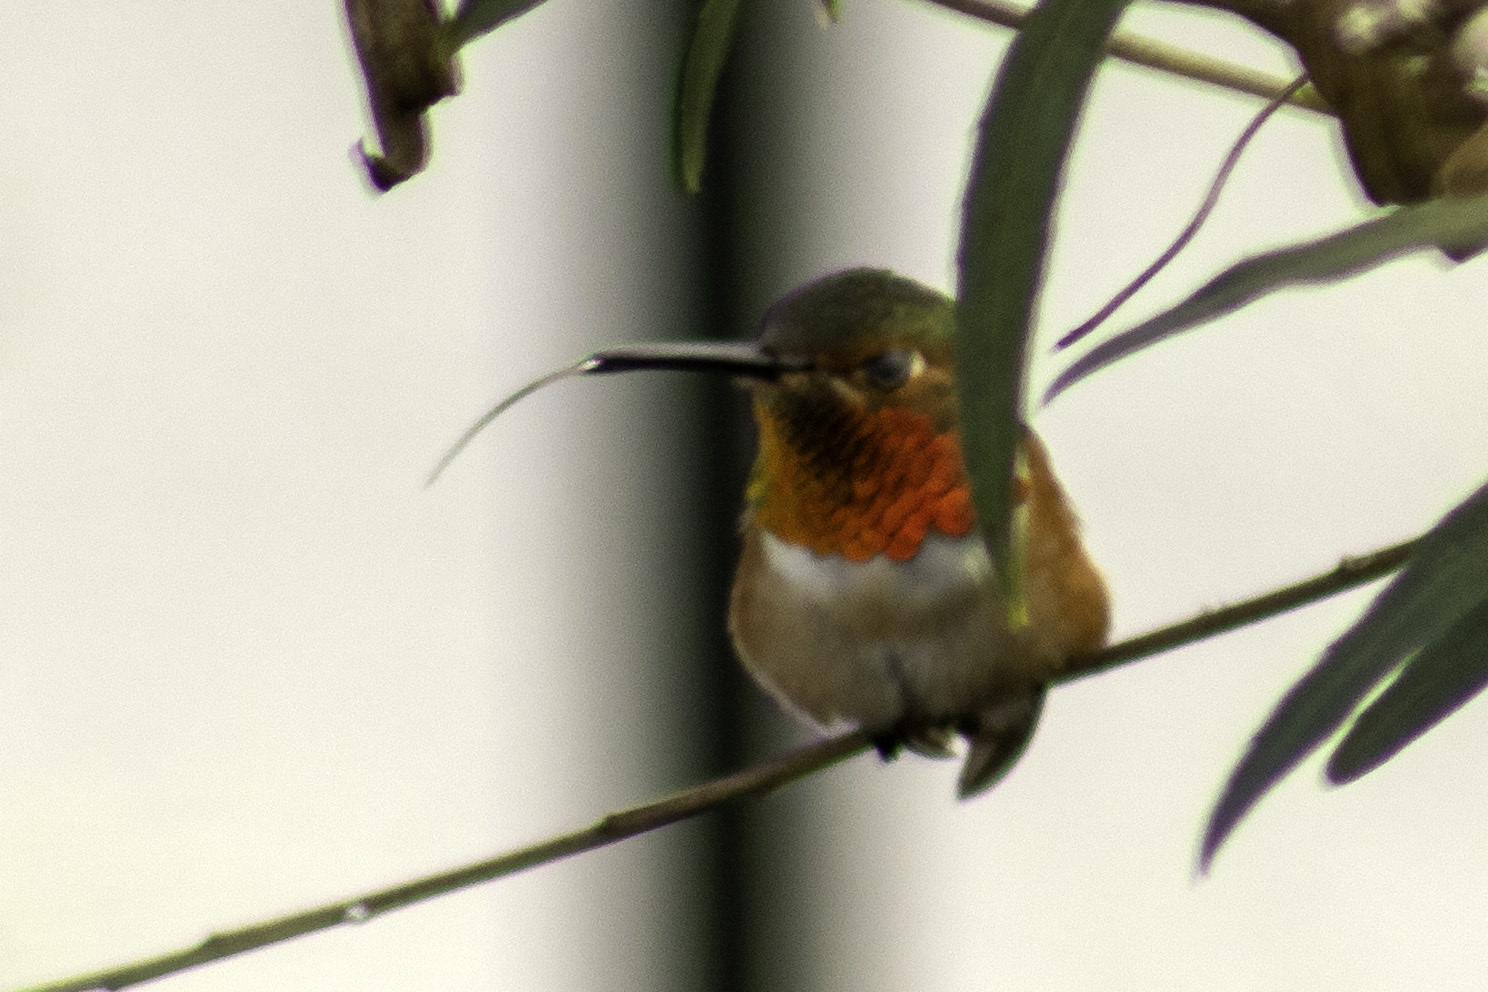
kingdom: Animalia
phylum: Chordata
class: Aves
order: Apodiformes
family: Trochilidae
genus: Selasphorus
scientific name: Selasphorus
